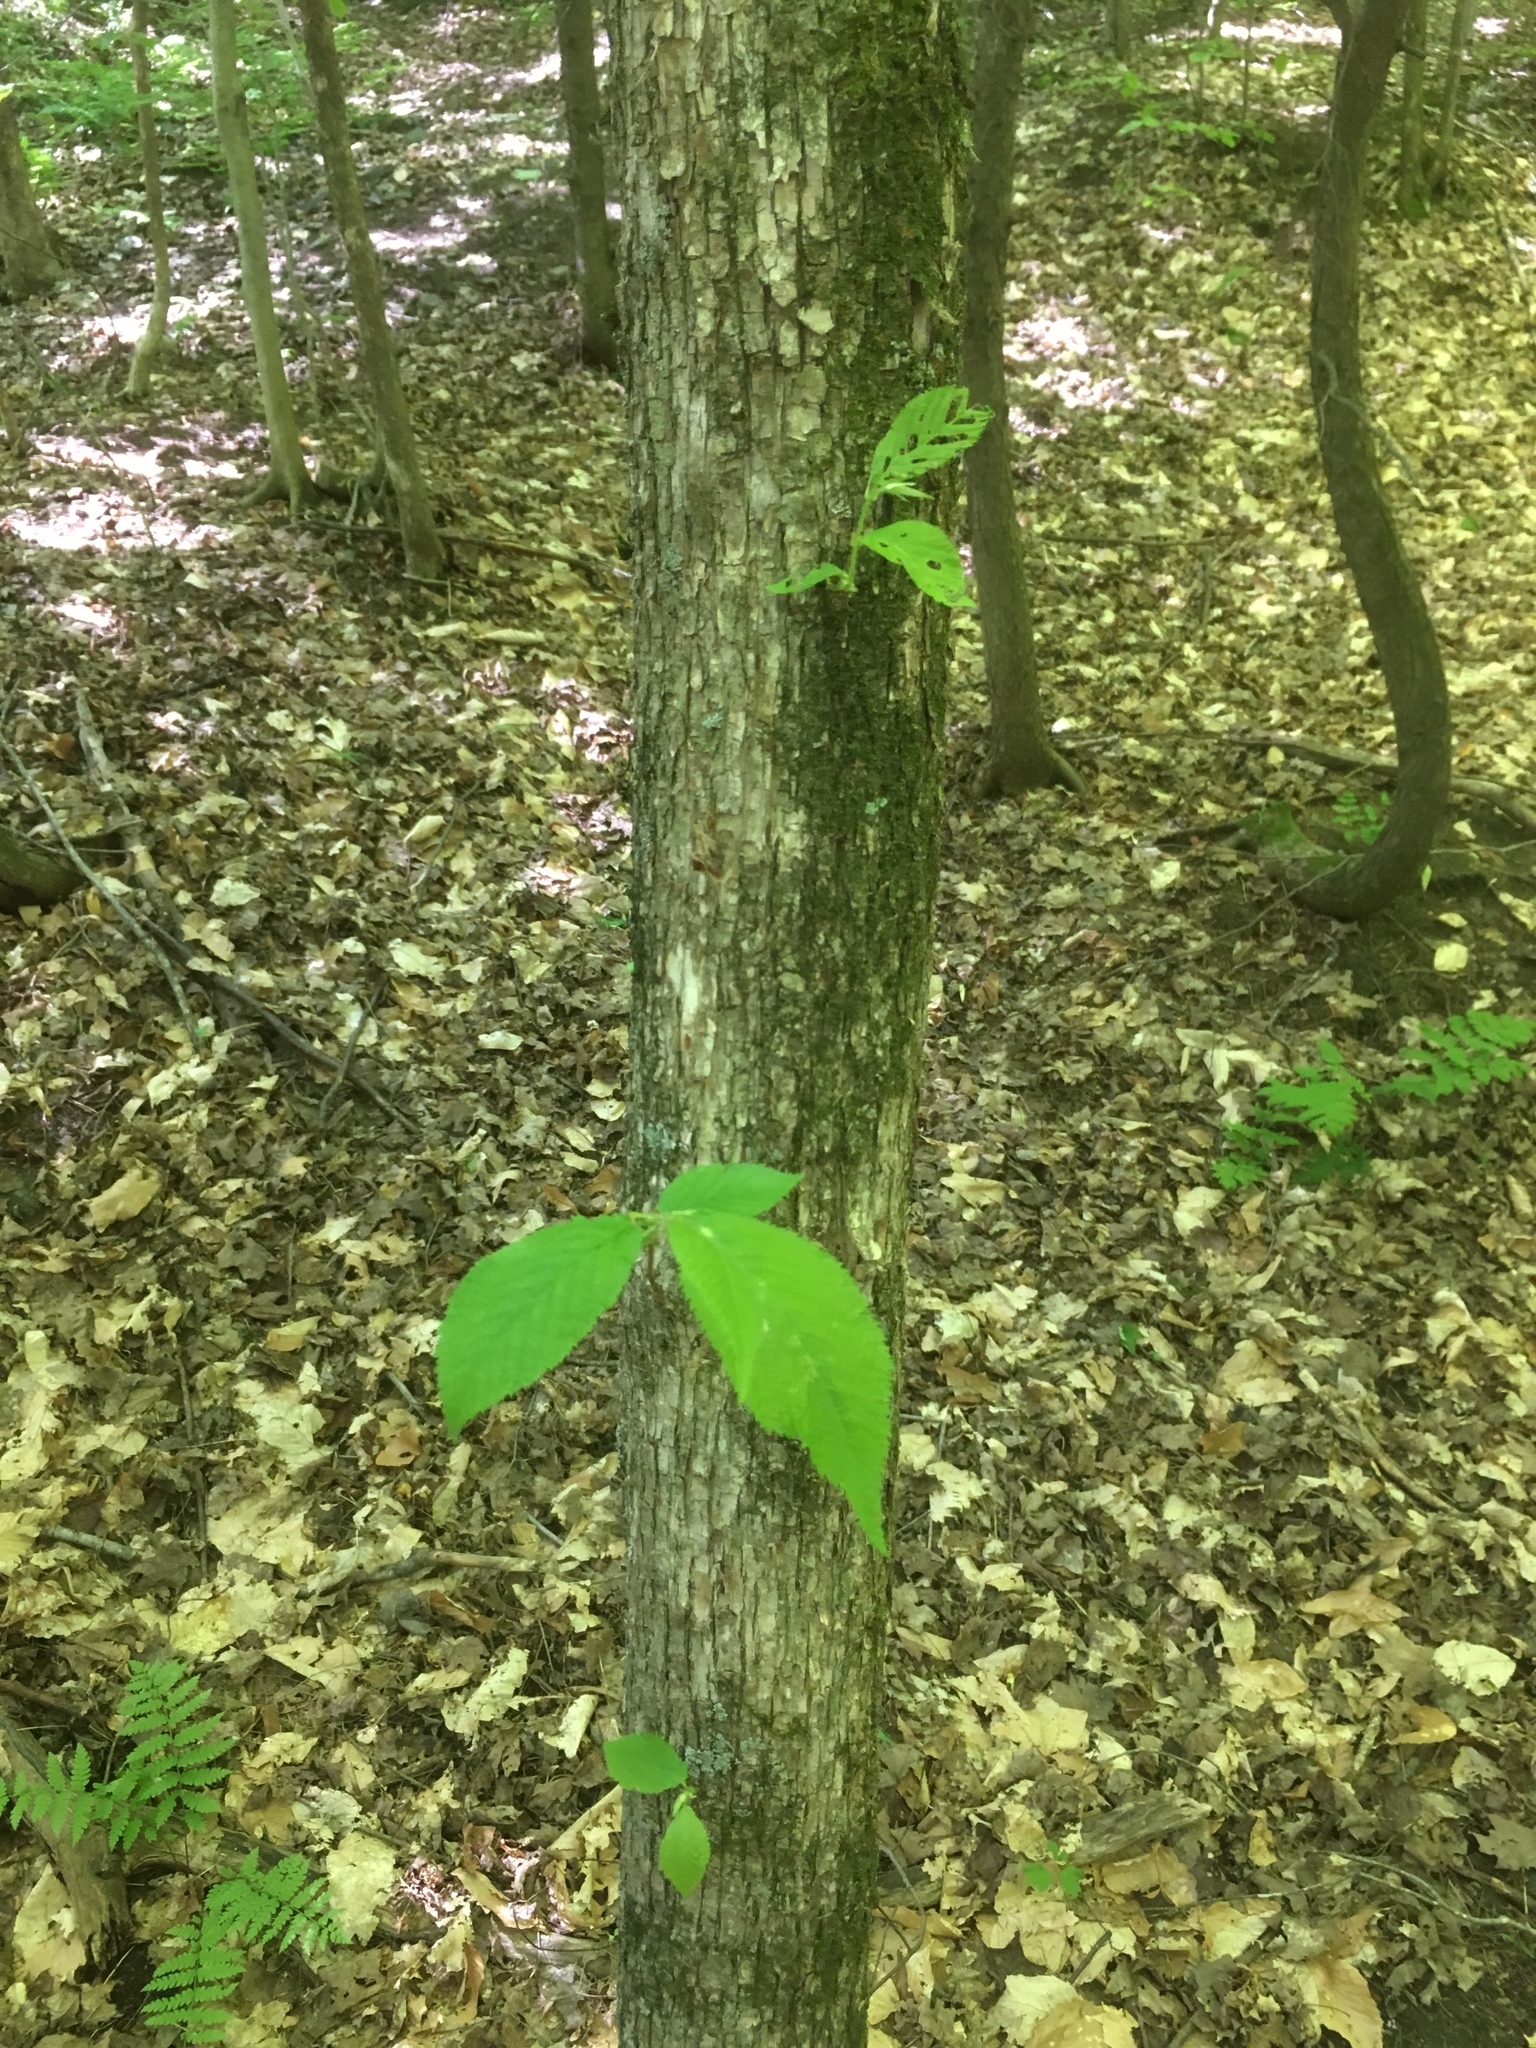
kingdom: Plantae
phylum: Tracheophyta
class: Magnoliopsida
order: Fagales
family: Betulaceae
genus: Ostrya
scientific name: Ostrya virginiana
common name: Ironwood
